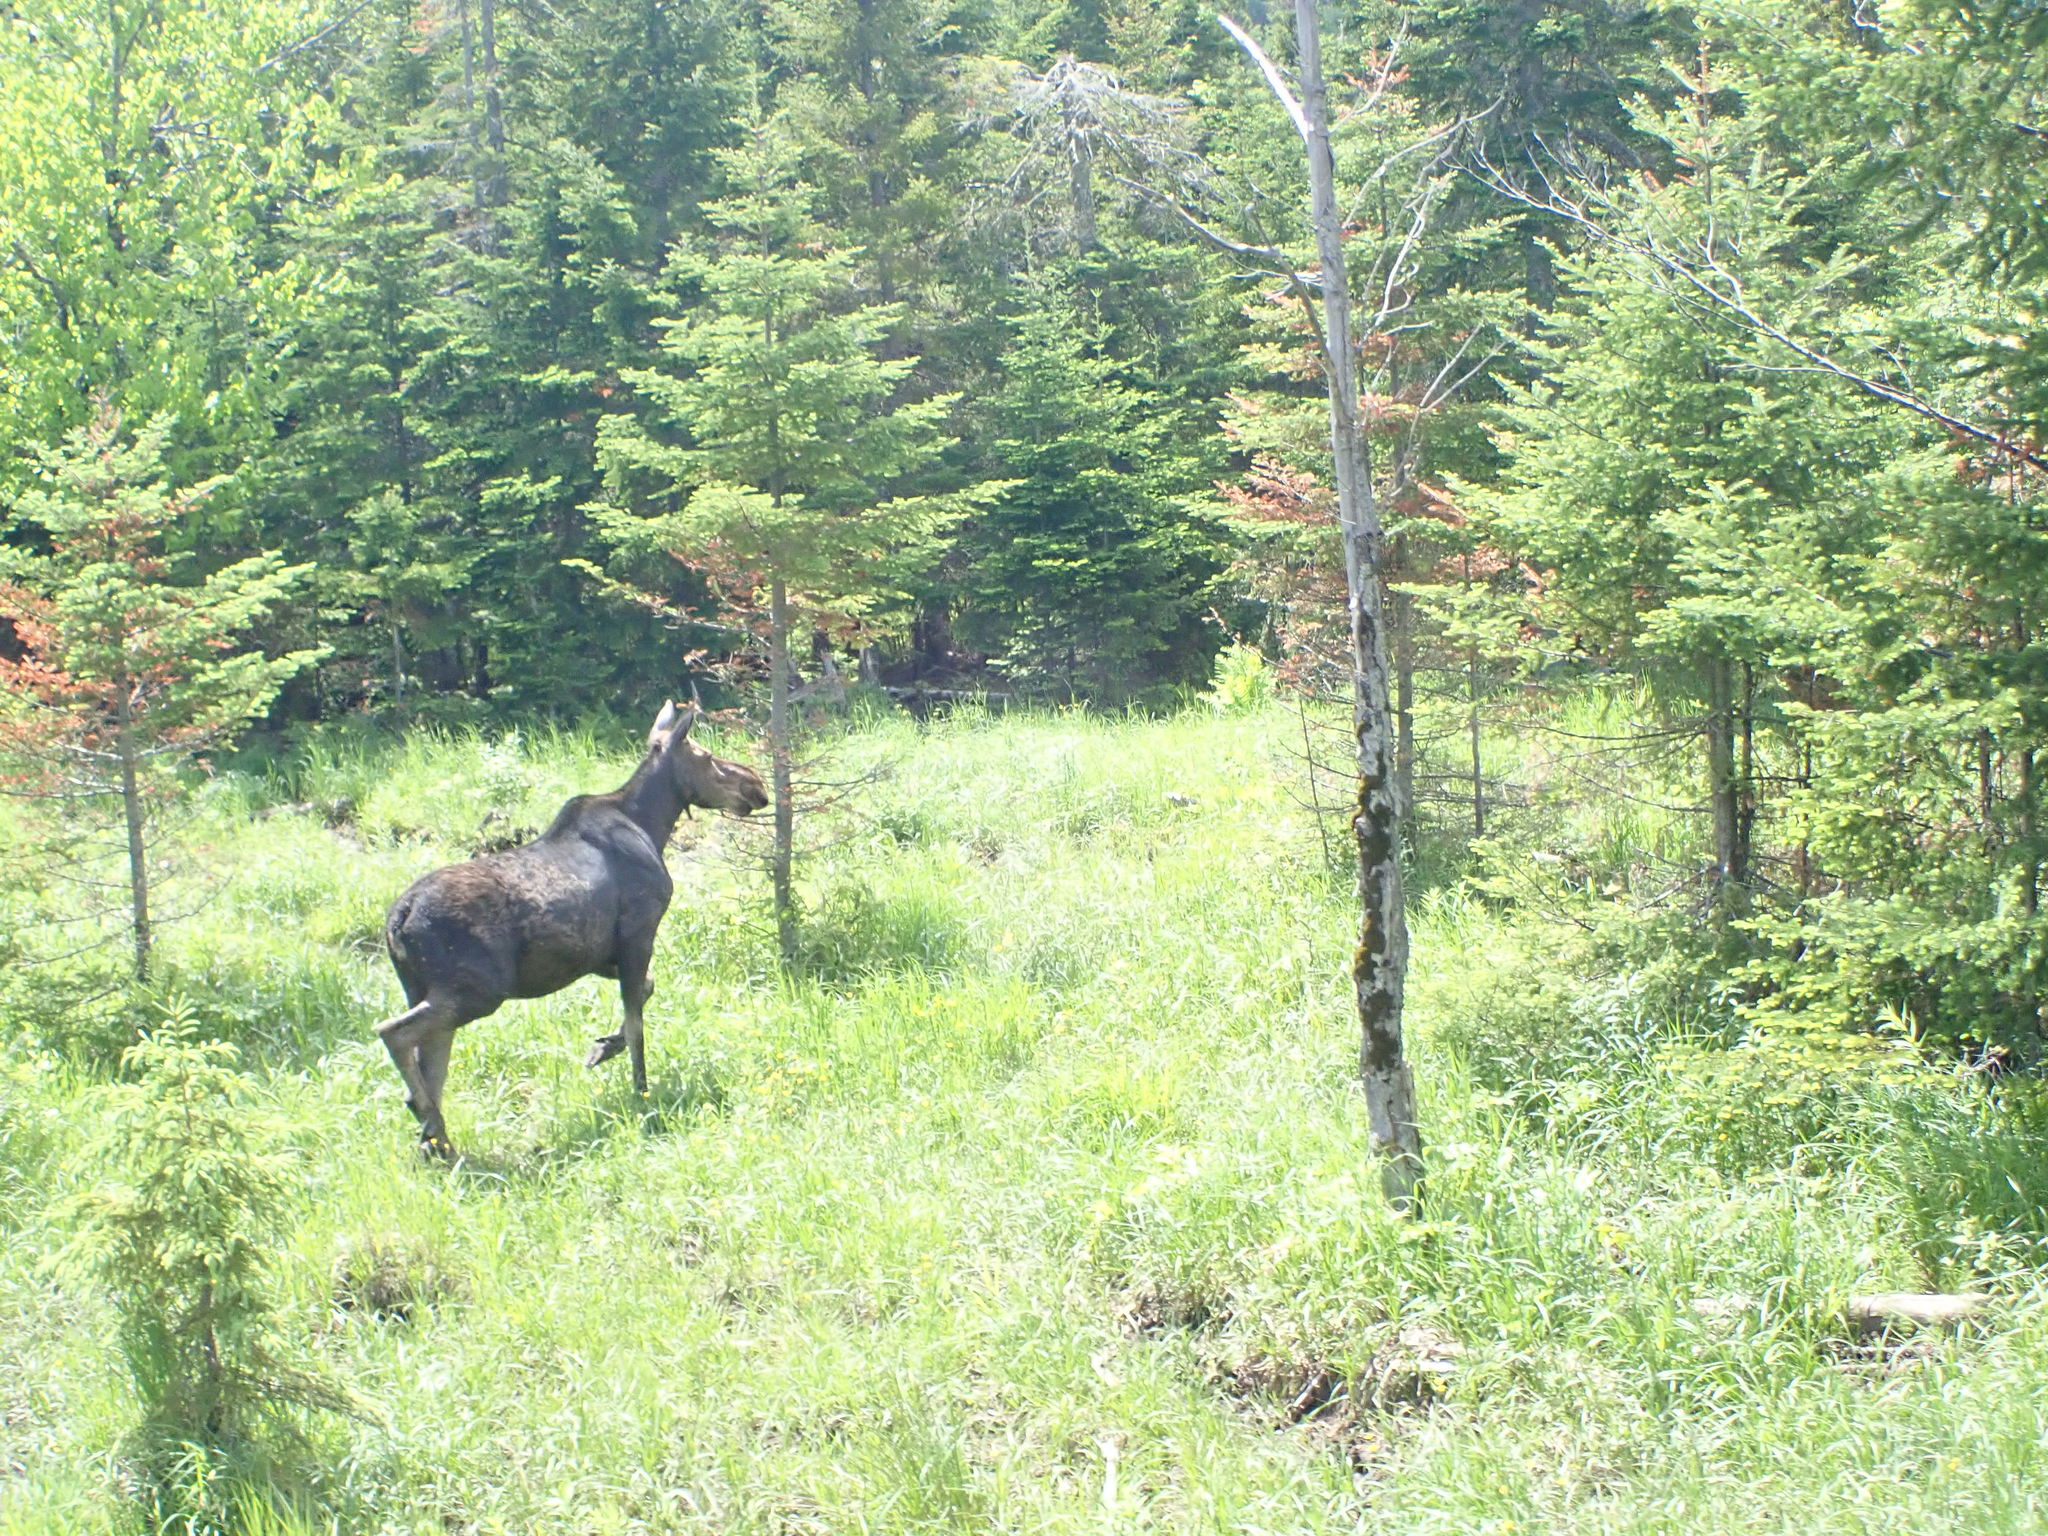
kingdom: Animalia
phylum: Chordata
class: Mammalia
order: Artiodactyla
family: Cervidae
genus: Alces
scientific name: Alces alces
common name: Moose
